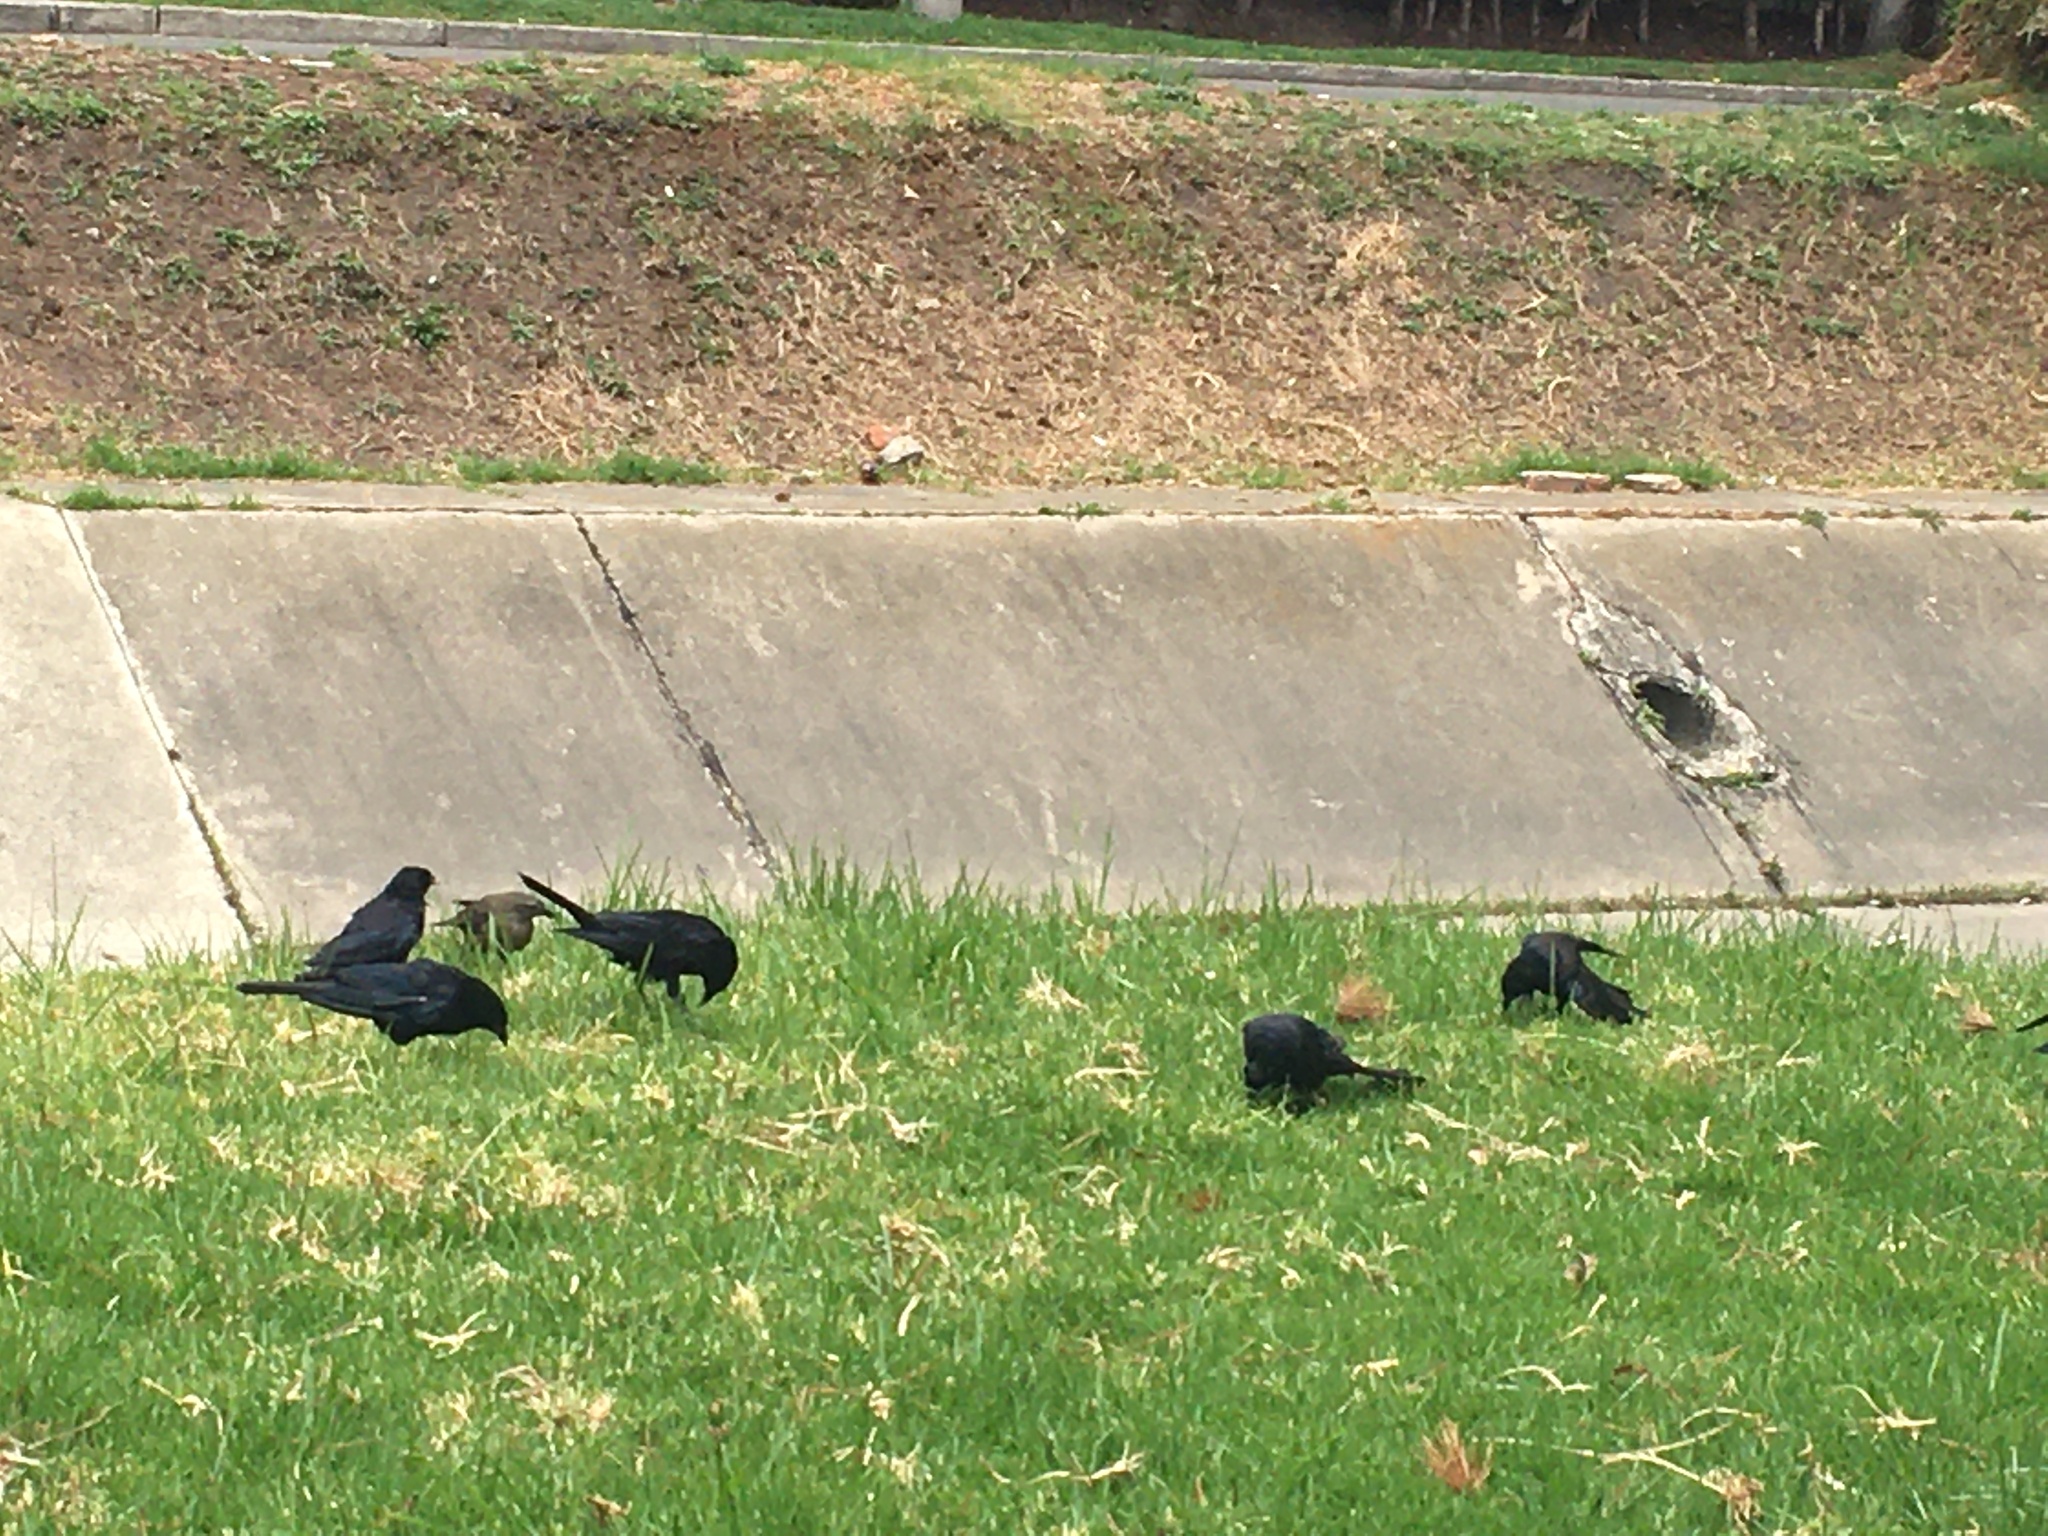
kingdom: Animalia
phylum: Chordata
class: Aves
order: Passeriformes
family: Icteridae
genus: Molothrus
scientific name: Molothrus bonariensis
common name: Shiny cowbird
